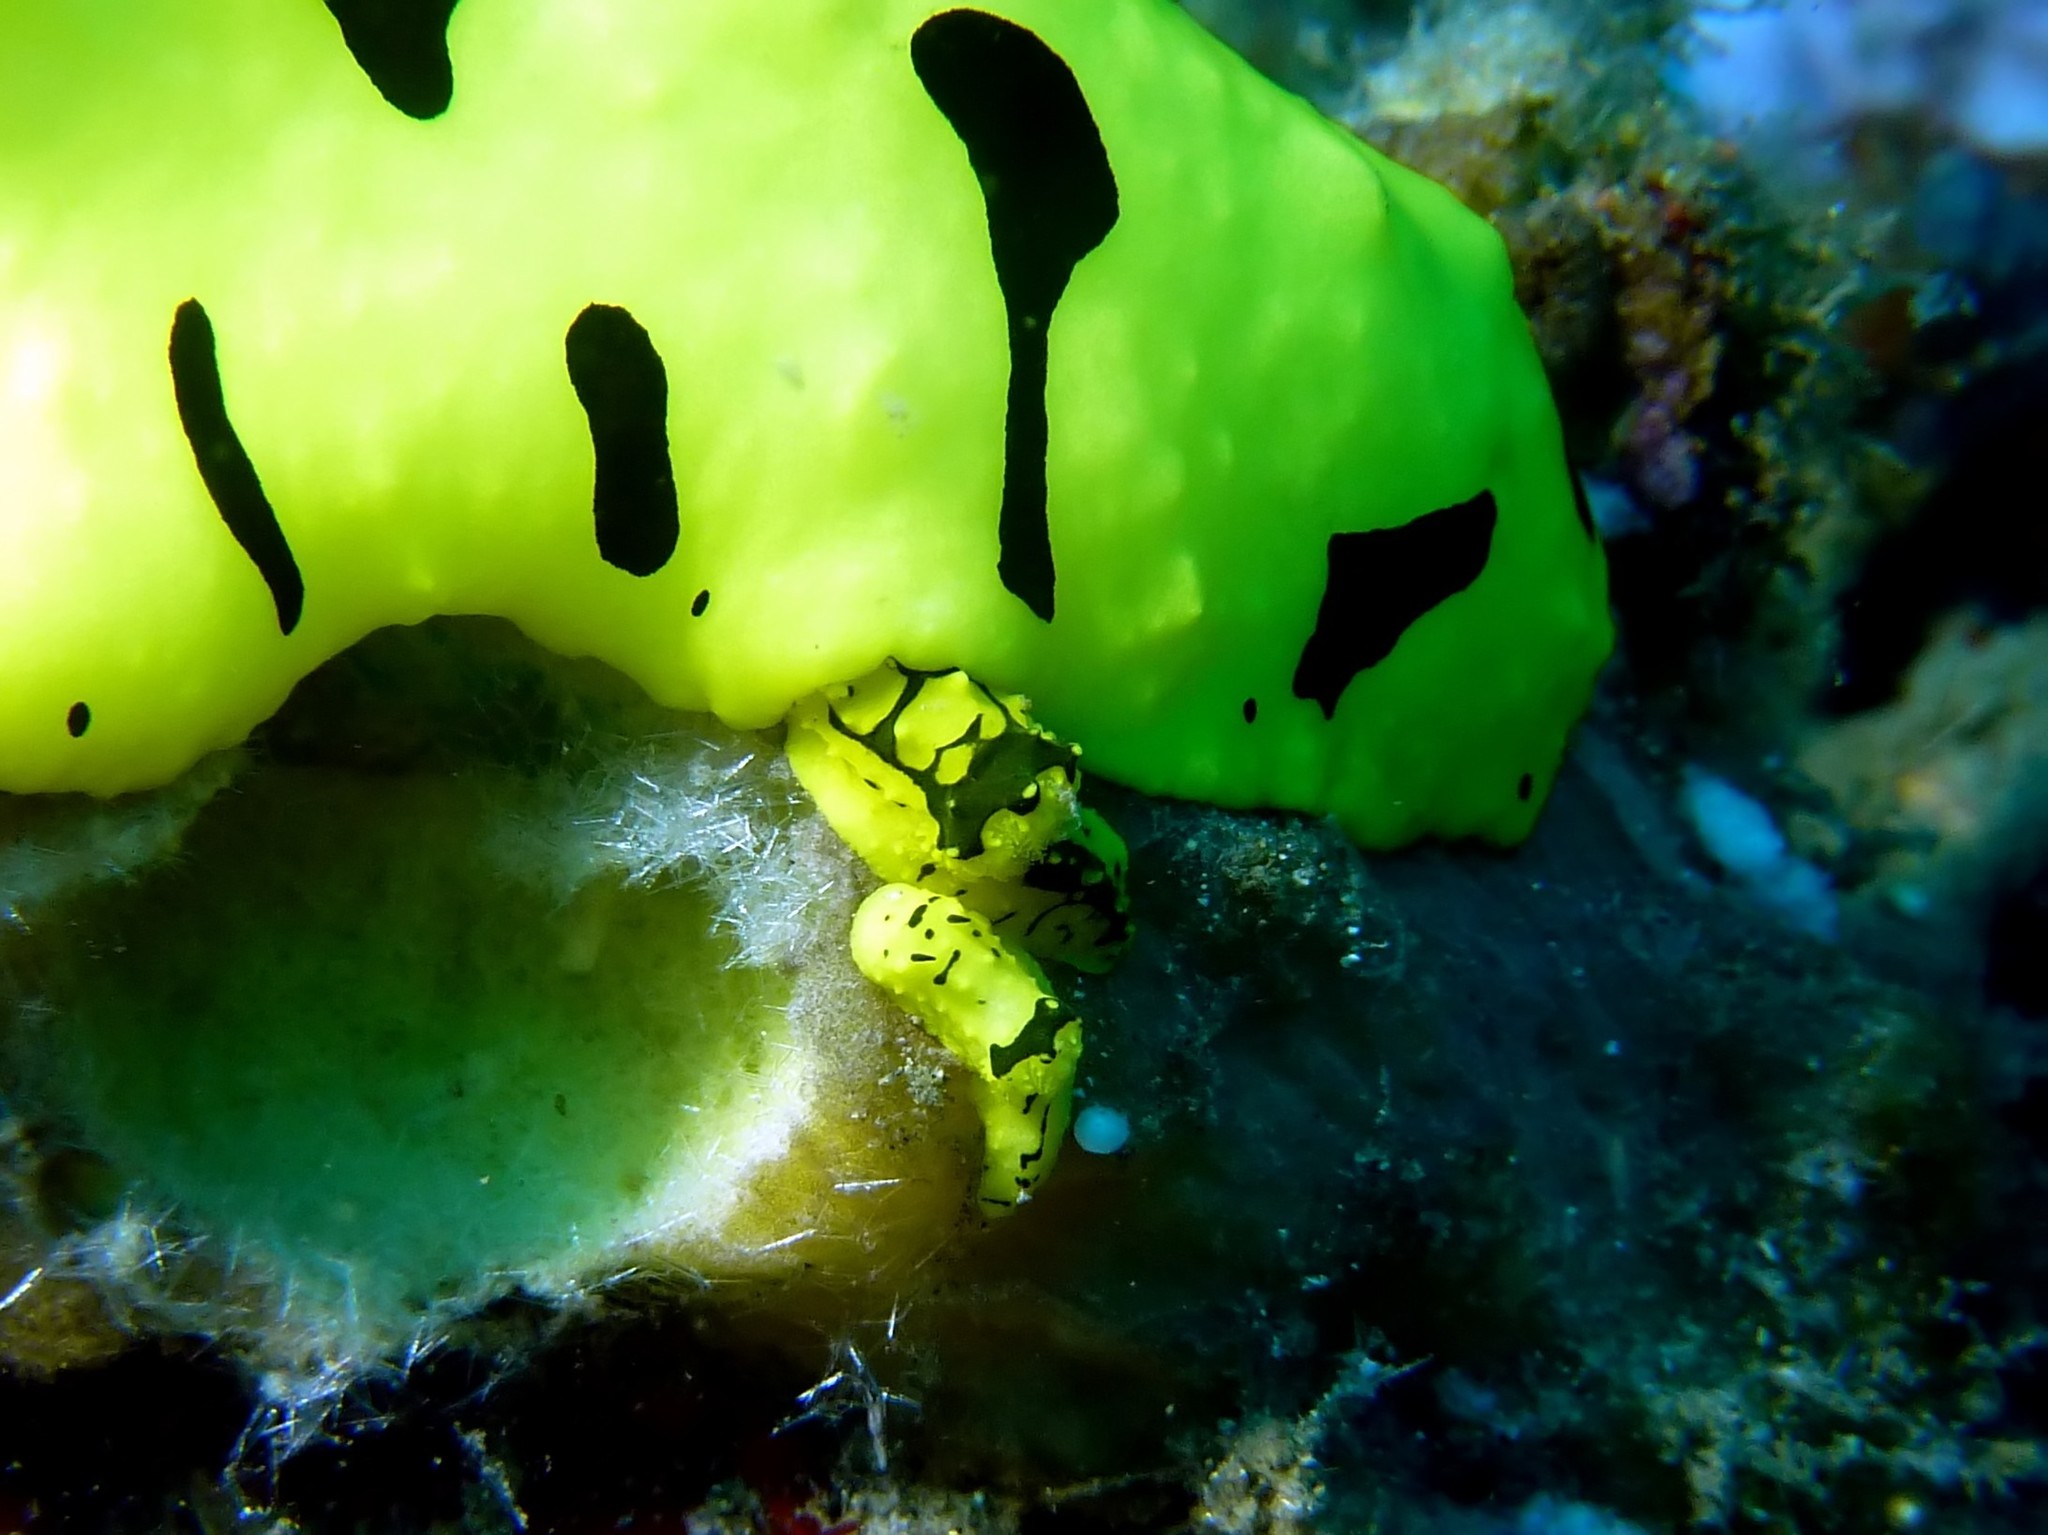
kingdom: Animalia
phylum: Mollusca
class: Gastropoda
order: Nudibranchia
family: Aegiridae
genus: Notodoris
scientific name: Notodoris minor
